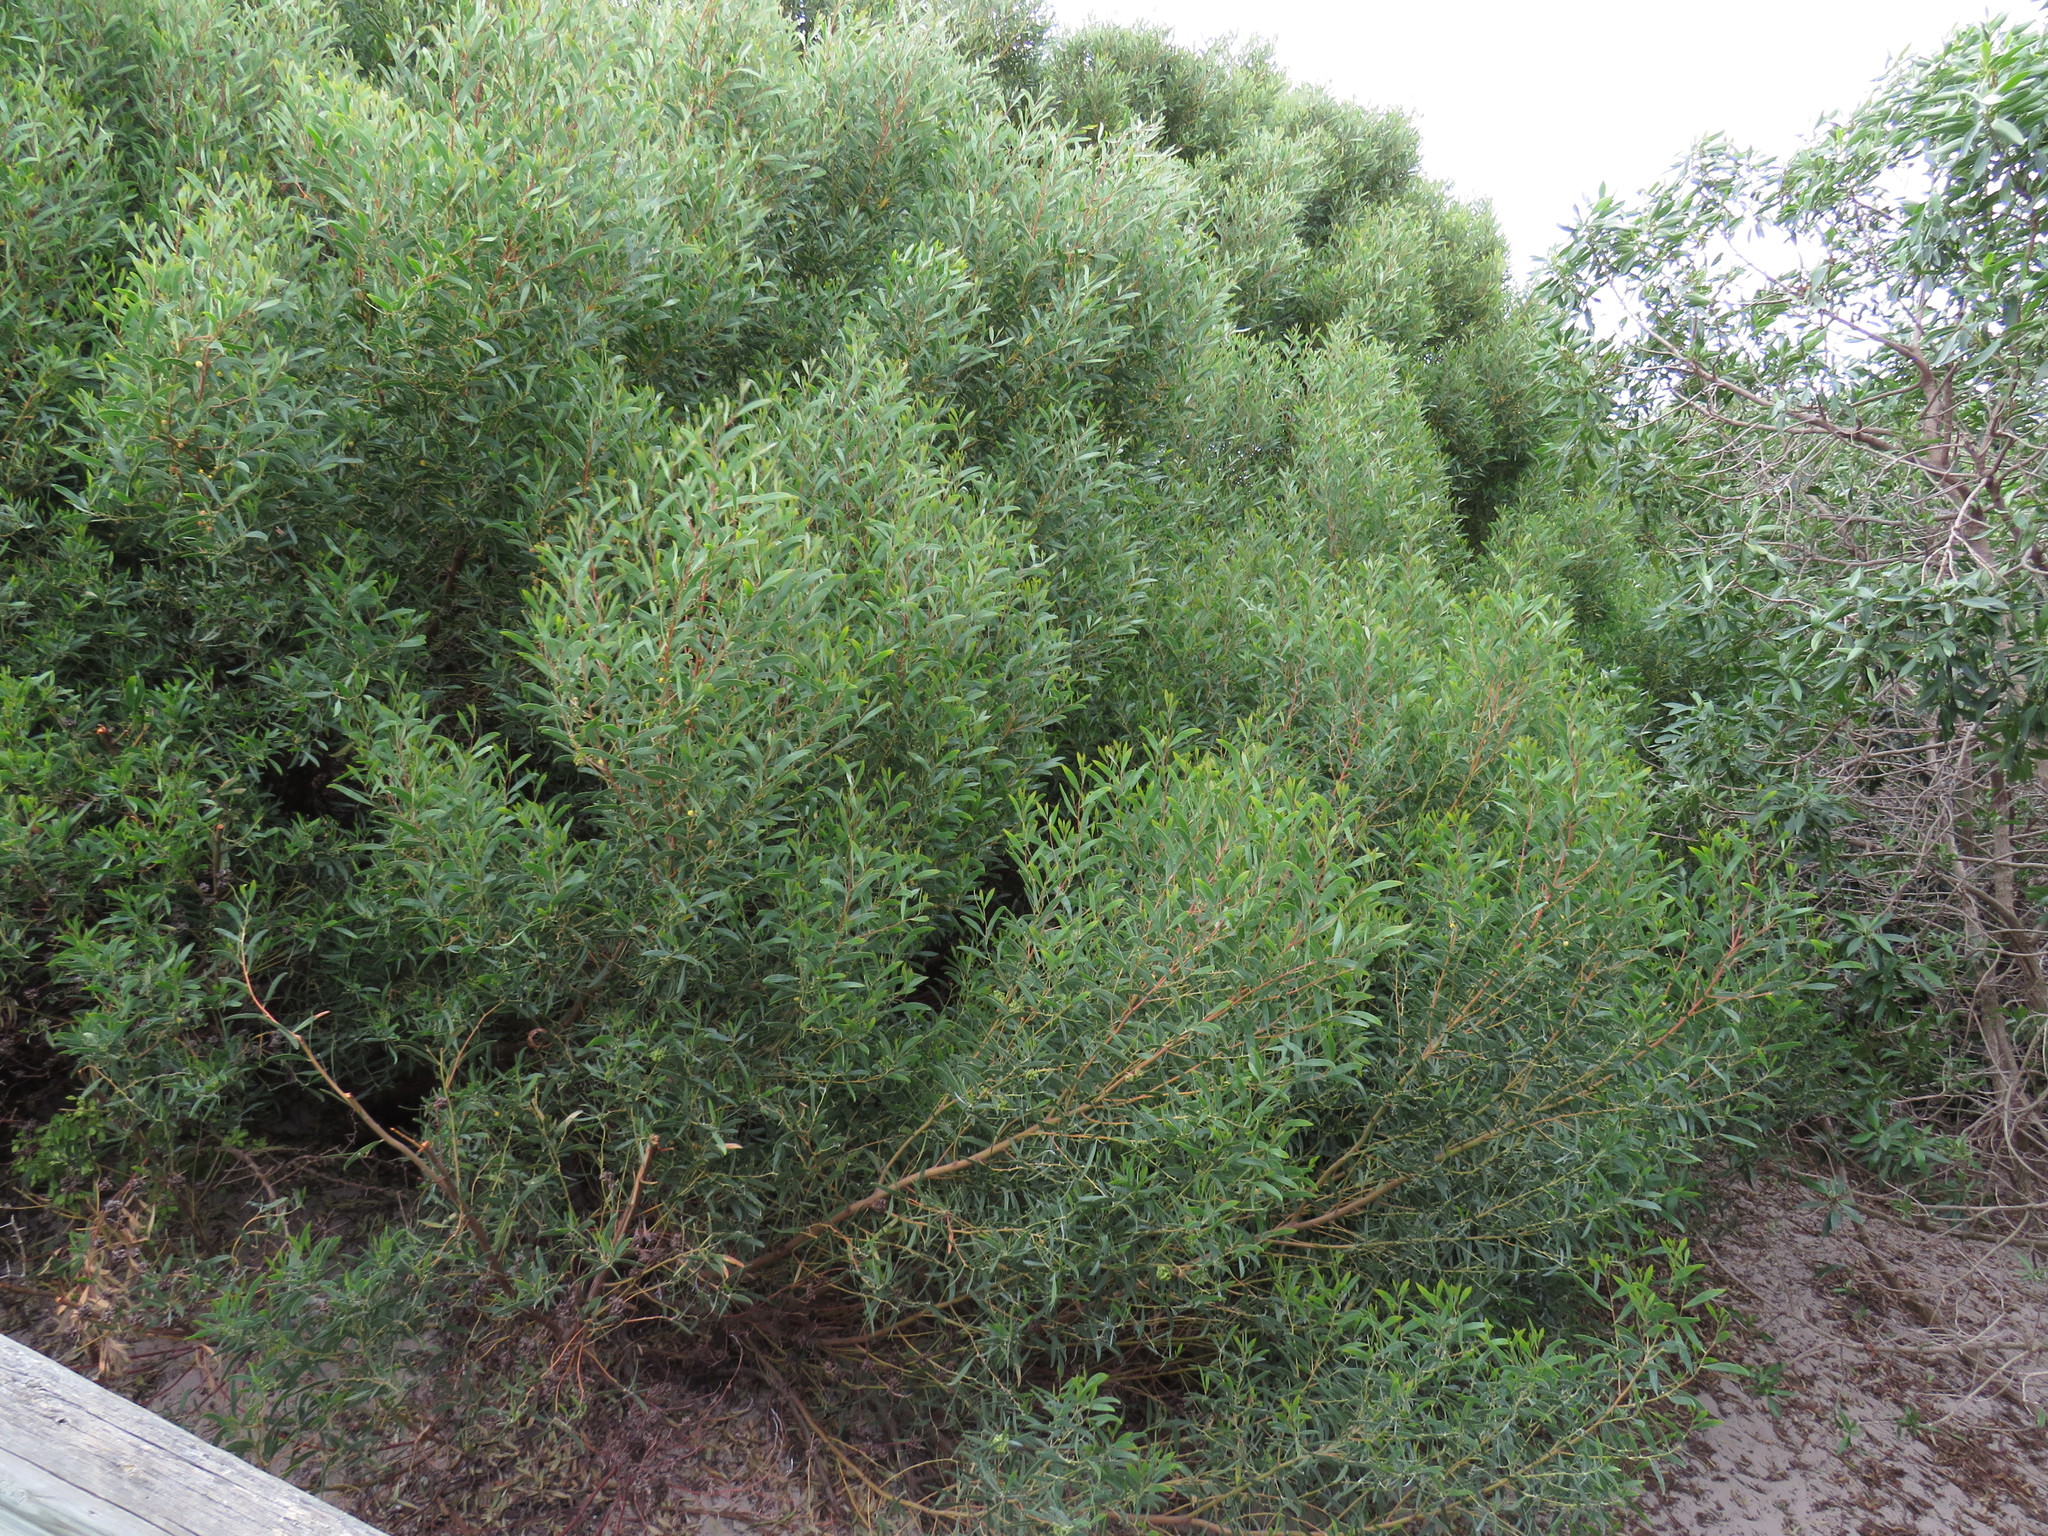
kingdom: Plantae
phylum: Tracheophyta
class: Magnoliopsida
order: Fabales
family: Fabaceae
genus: Acacia
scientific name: Acacia cyclops
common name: Coastal wattle
